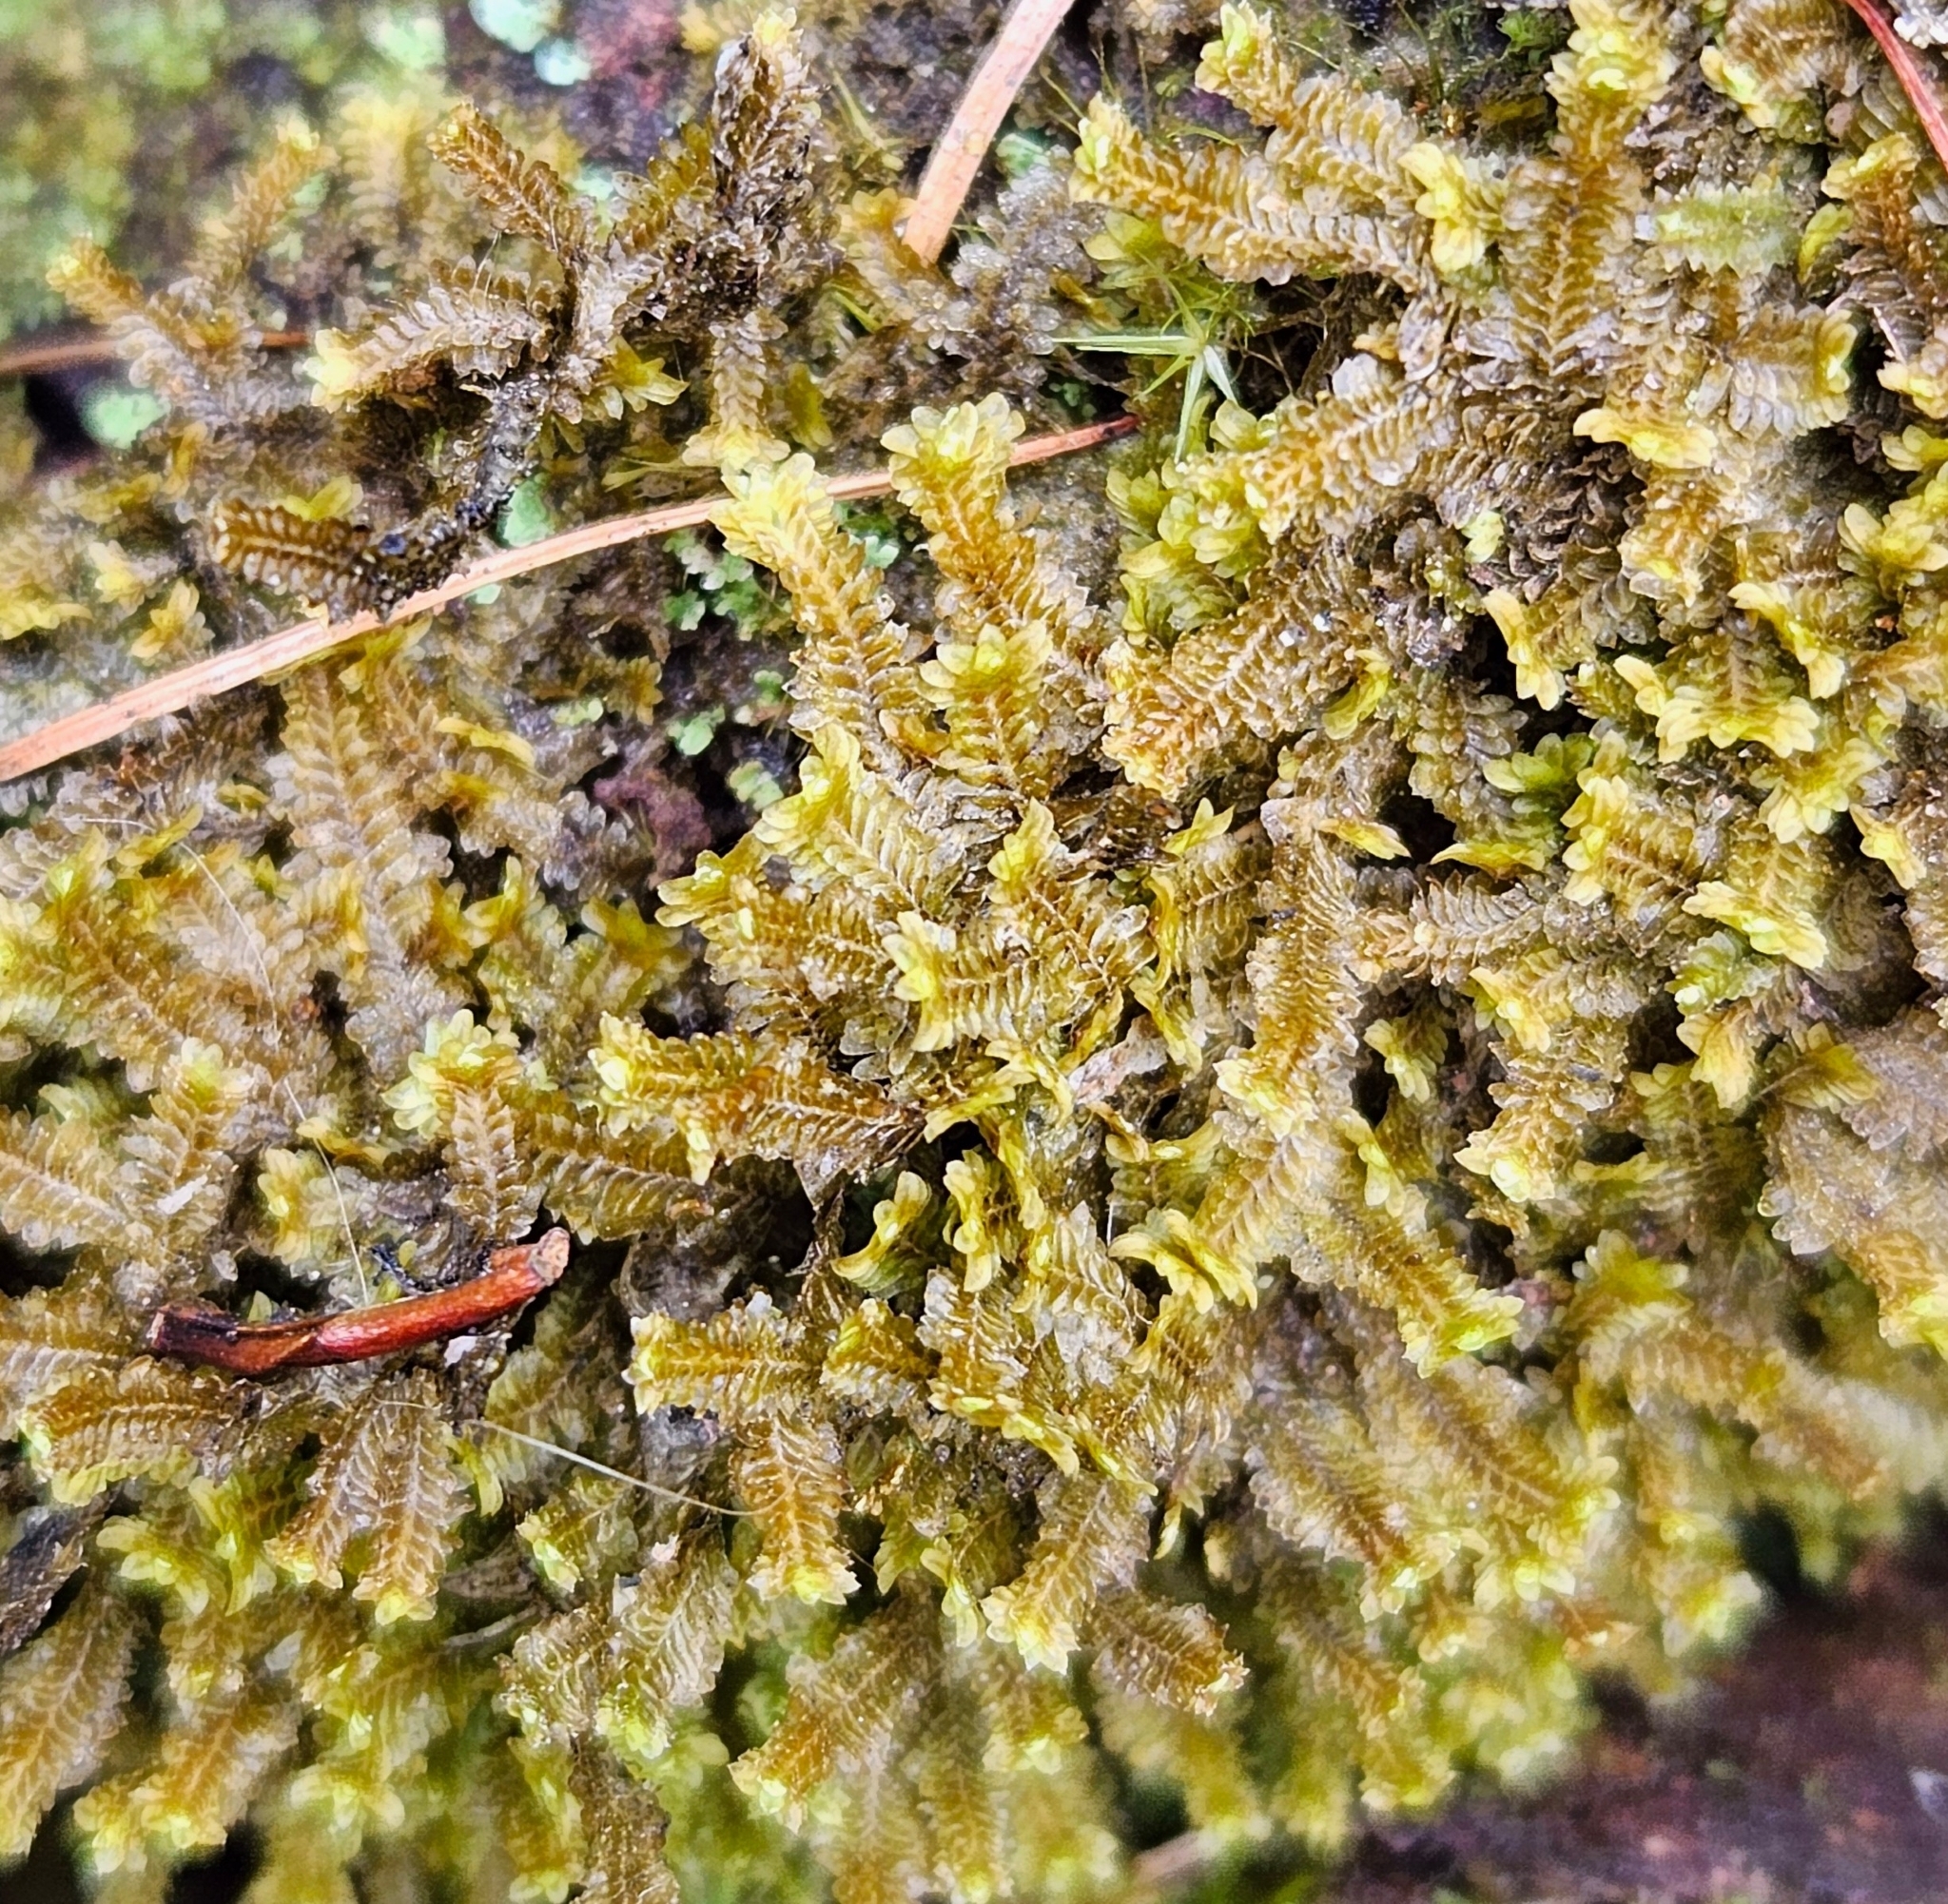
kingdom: Plantae
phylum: Marchantiophyta
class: Jungermanniopsida
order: Jungermanniales
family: Scapaniaceae
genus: Diplophyllum
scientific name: Diplophyllum albicans
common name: White earwort
